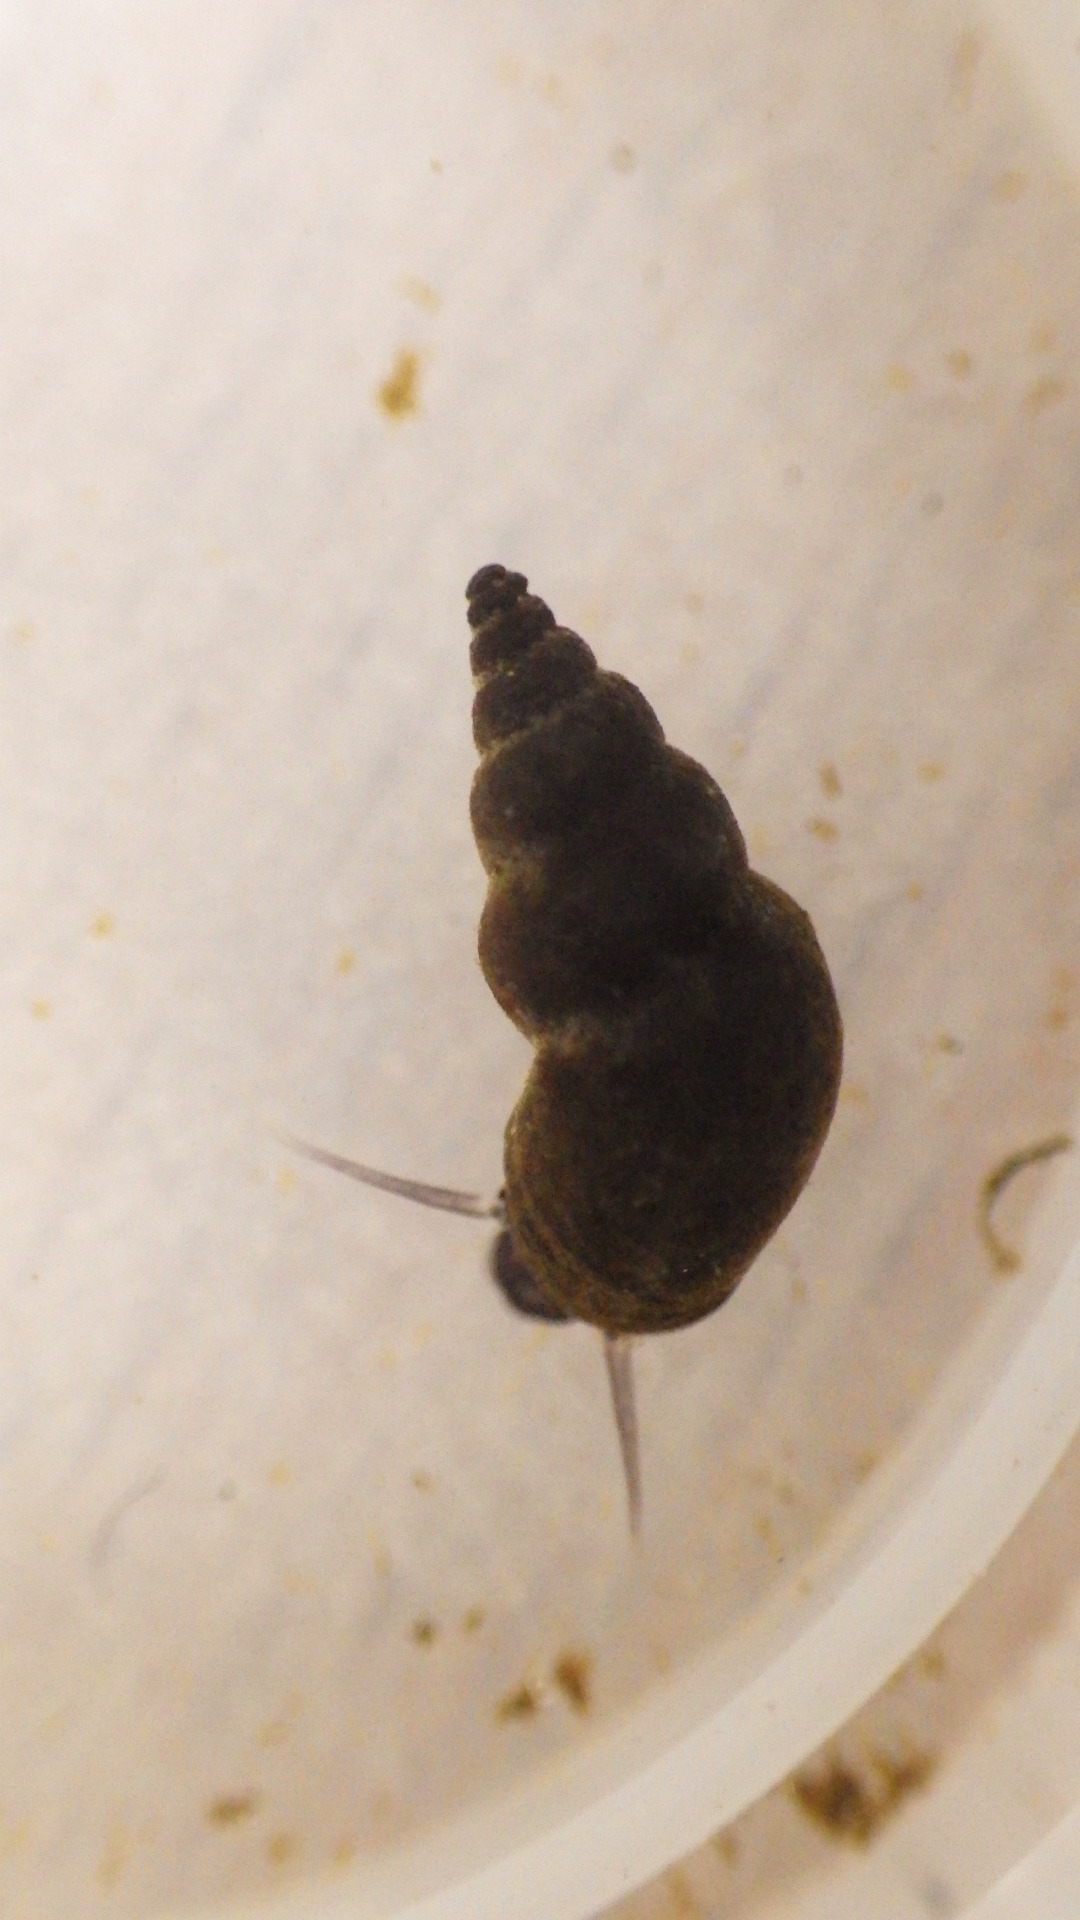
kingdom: Animalia
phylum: Mollusca
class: Gastropoda
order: Littorinimorpha
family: Tateidae
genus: Potamopyrgus
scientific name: Potamopyrgus antipodarum
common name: Jenkins' spire snail
